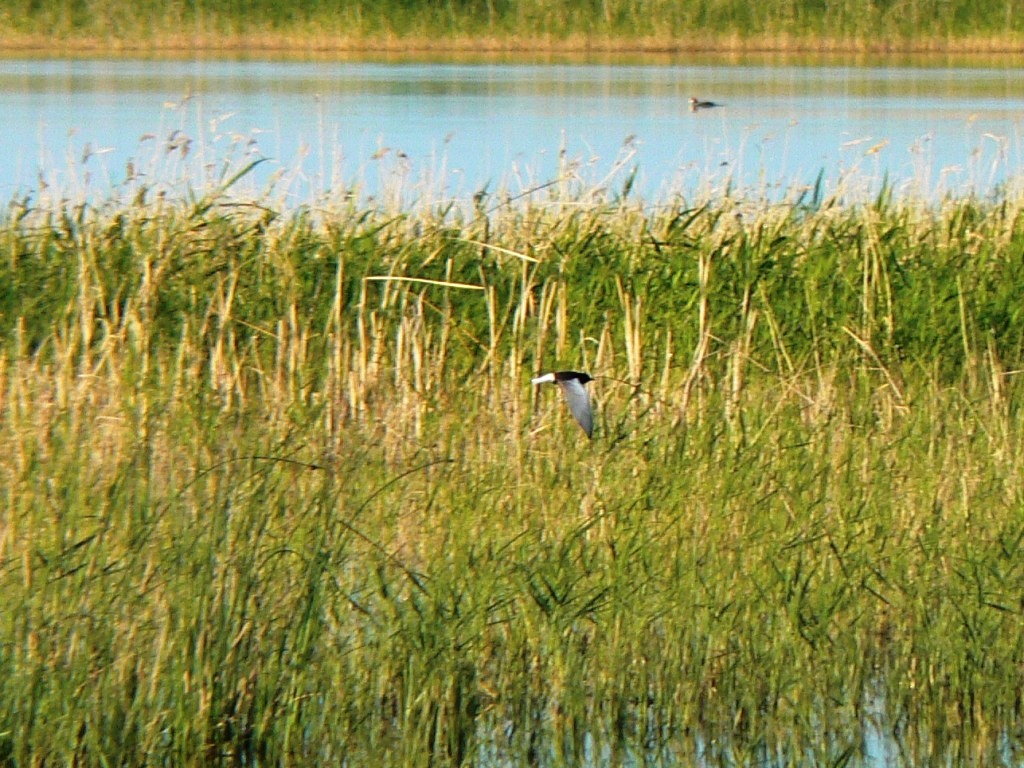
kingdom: Animalia
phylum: Chordata
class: Aves
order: Charadriiformes
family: Laridae
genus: Chlidonias
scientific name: Chlidonias leucopterus
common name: White-winged tern
